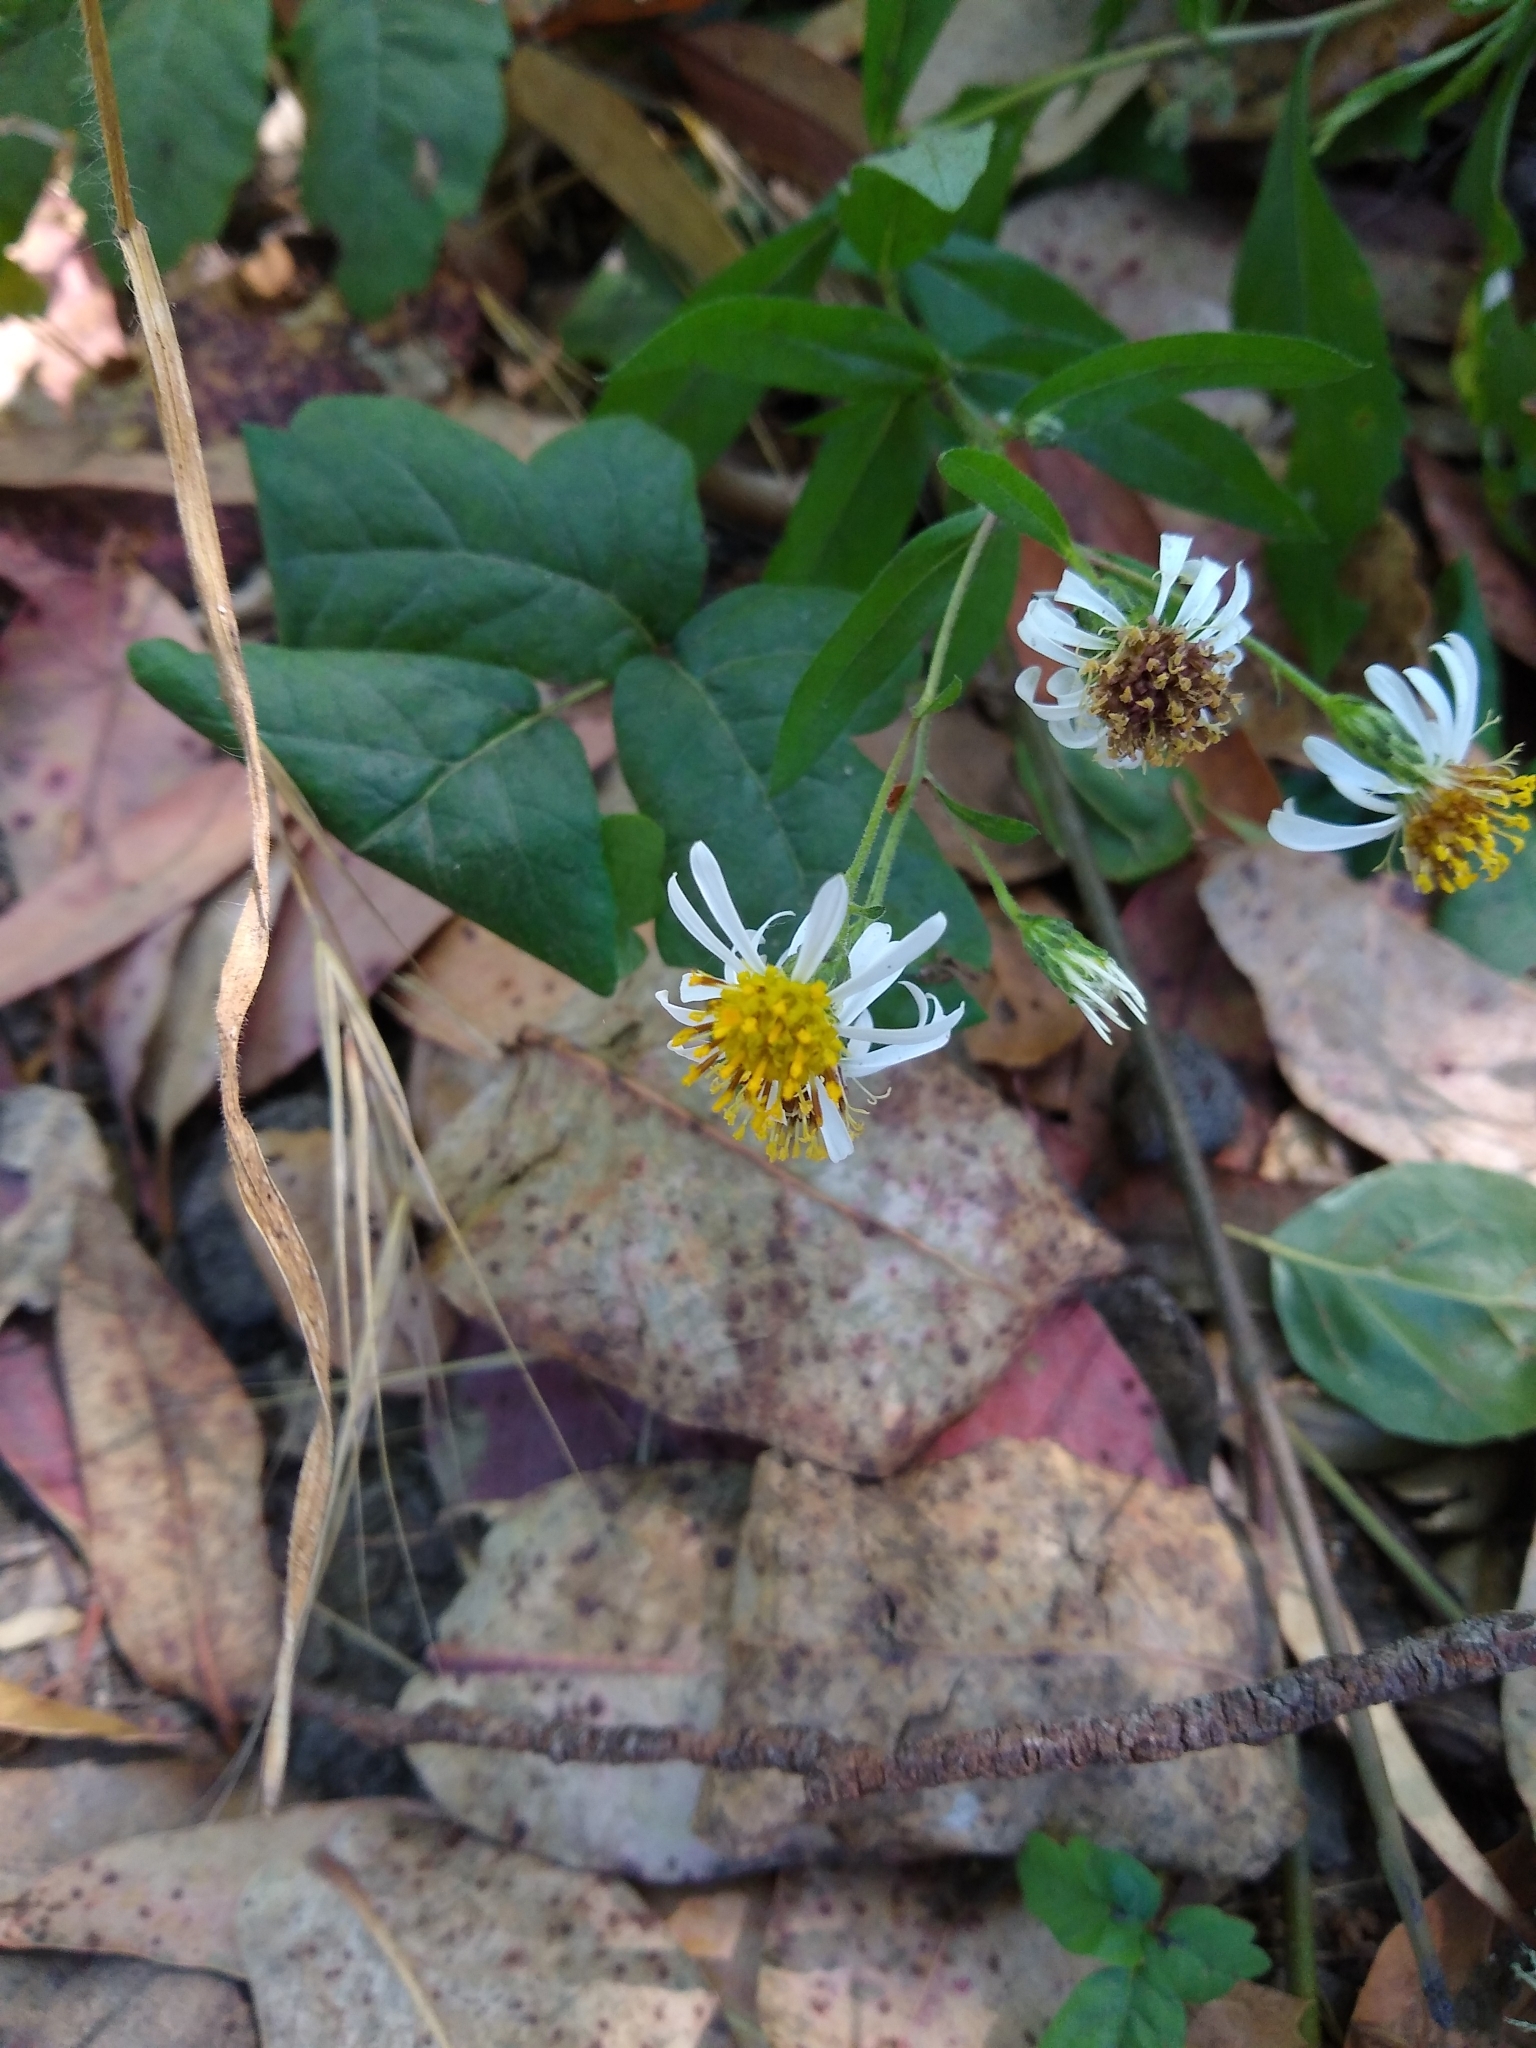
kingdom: Plantae
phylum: Tracheophyta
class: Magnoliopsida
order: Asterales
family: Asteraceae
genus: Eurybia
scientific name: Eurybia radulina
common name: Rough-leaved aster
